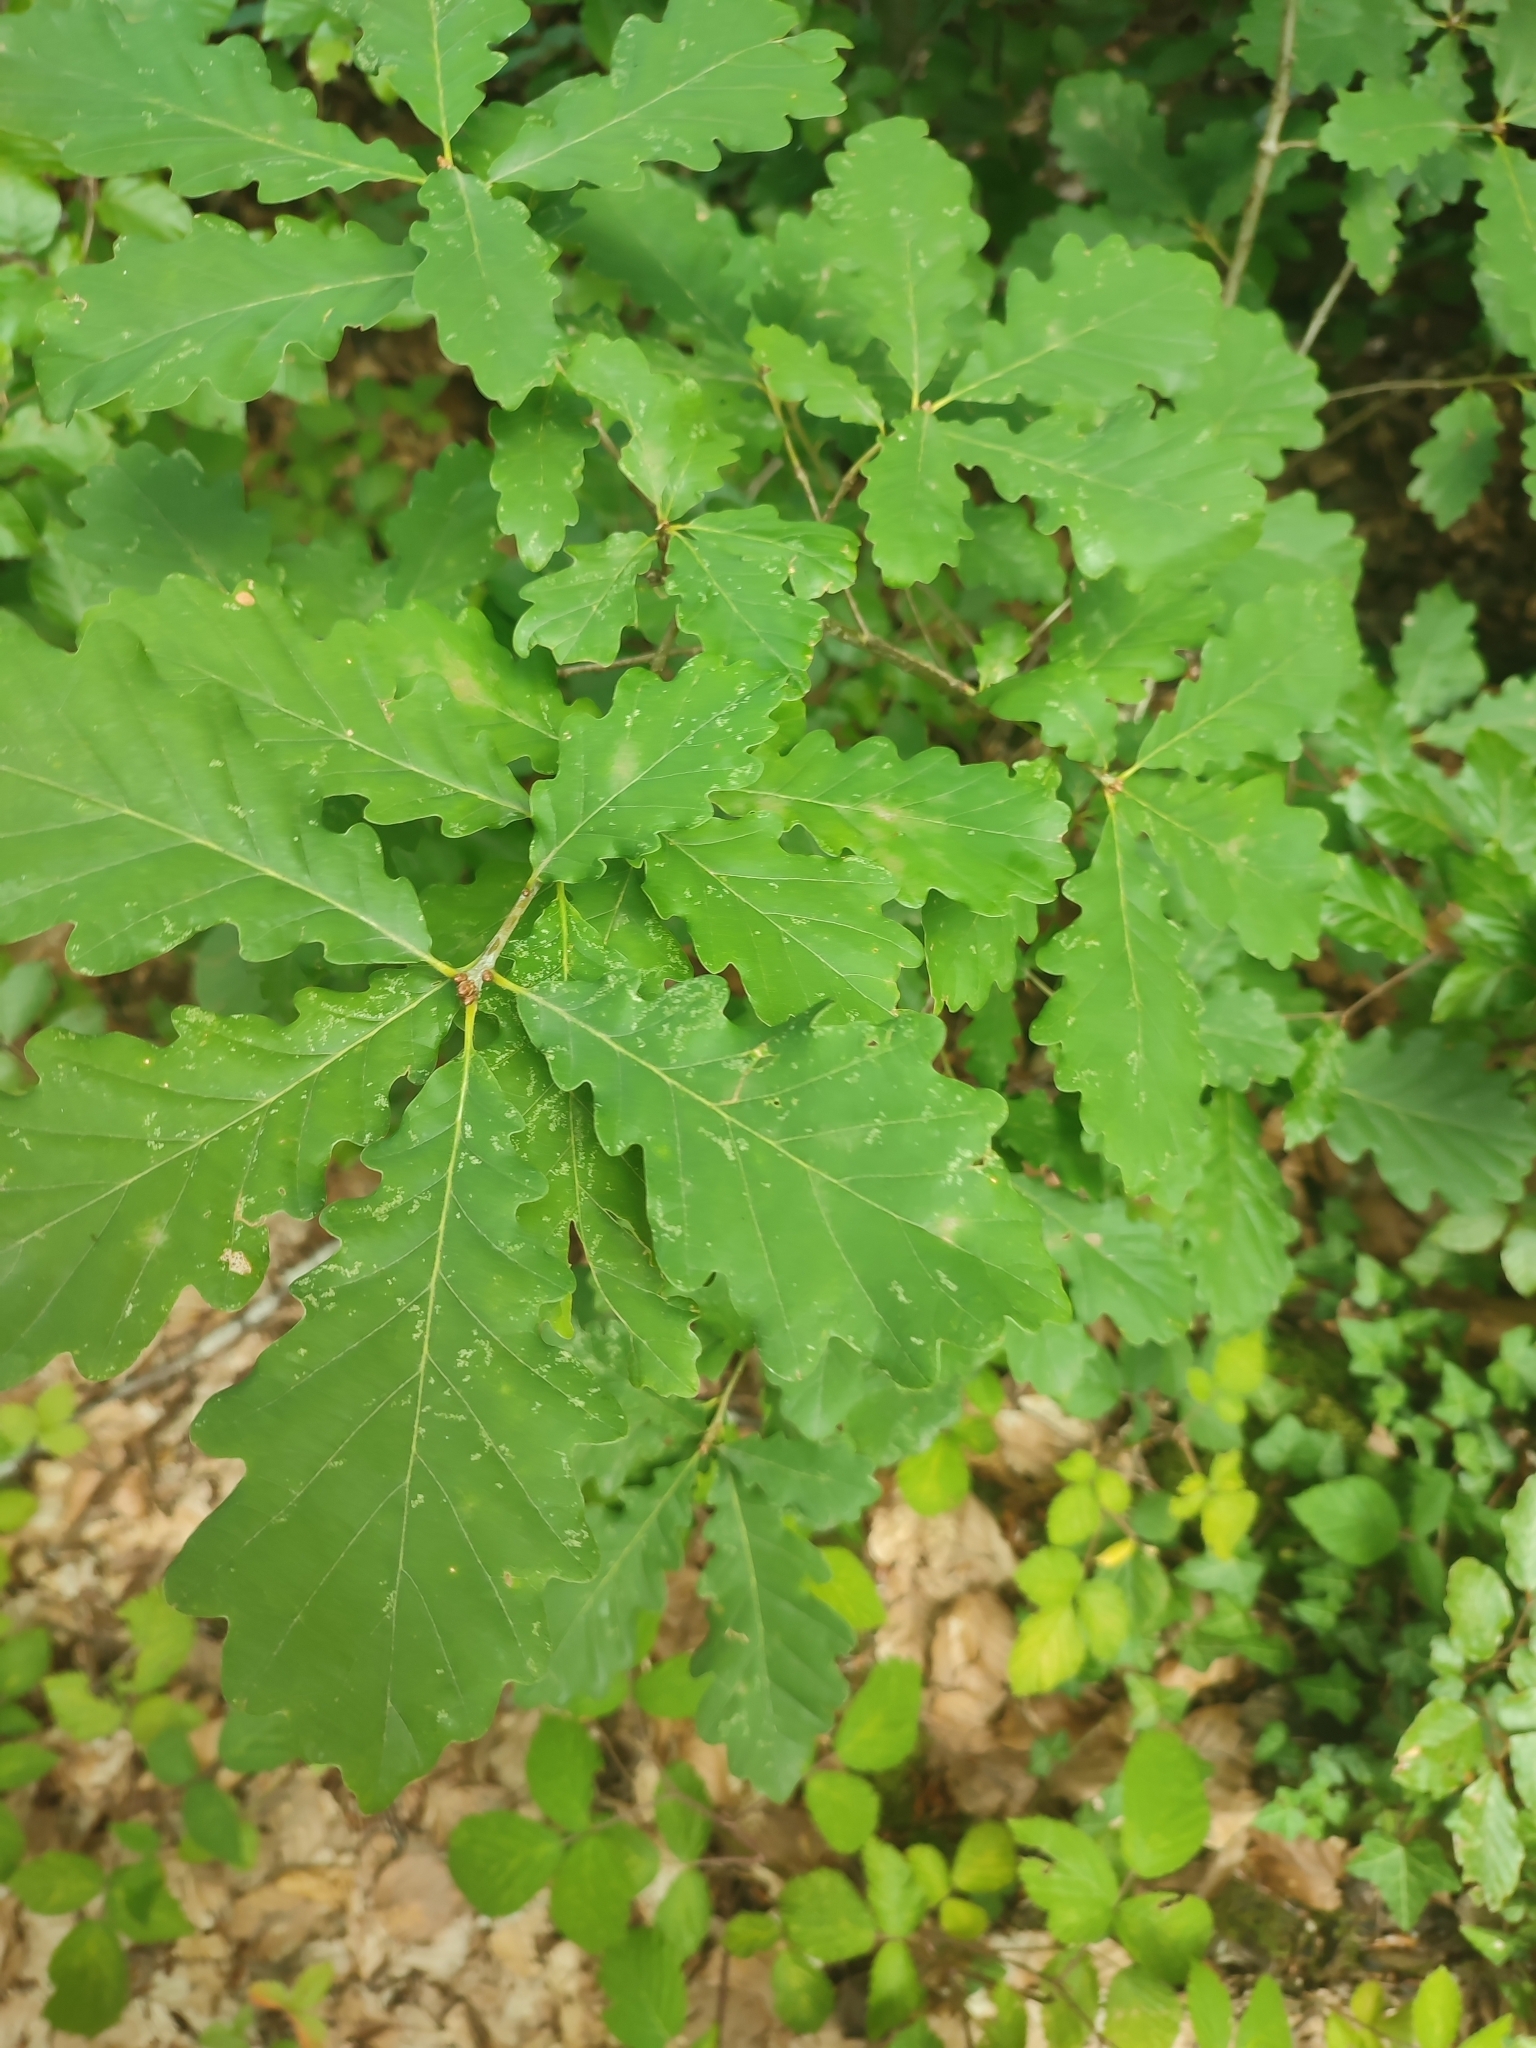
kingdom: Plantae
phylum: Tracheophyta
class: Magnoliopsida
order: Fagales
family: Fagaceae
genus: Quercus
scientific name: Quercus robur
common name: Pedunculate oak
